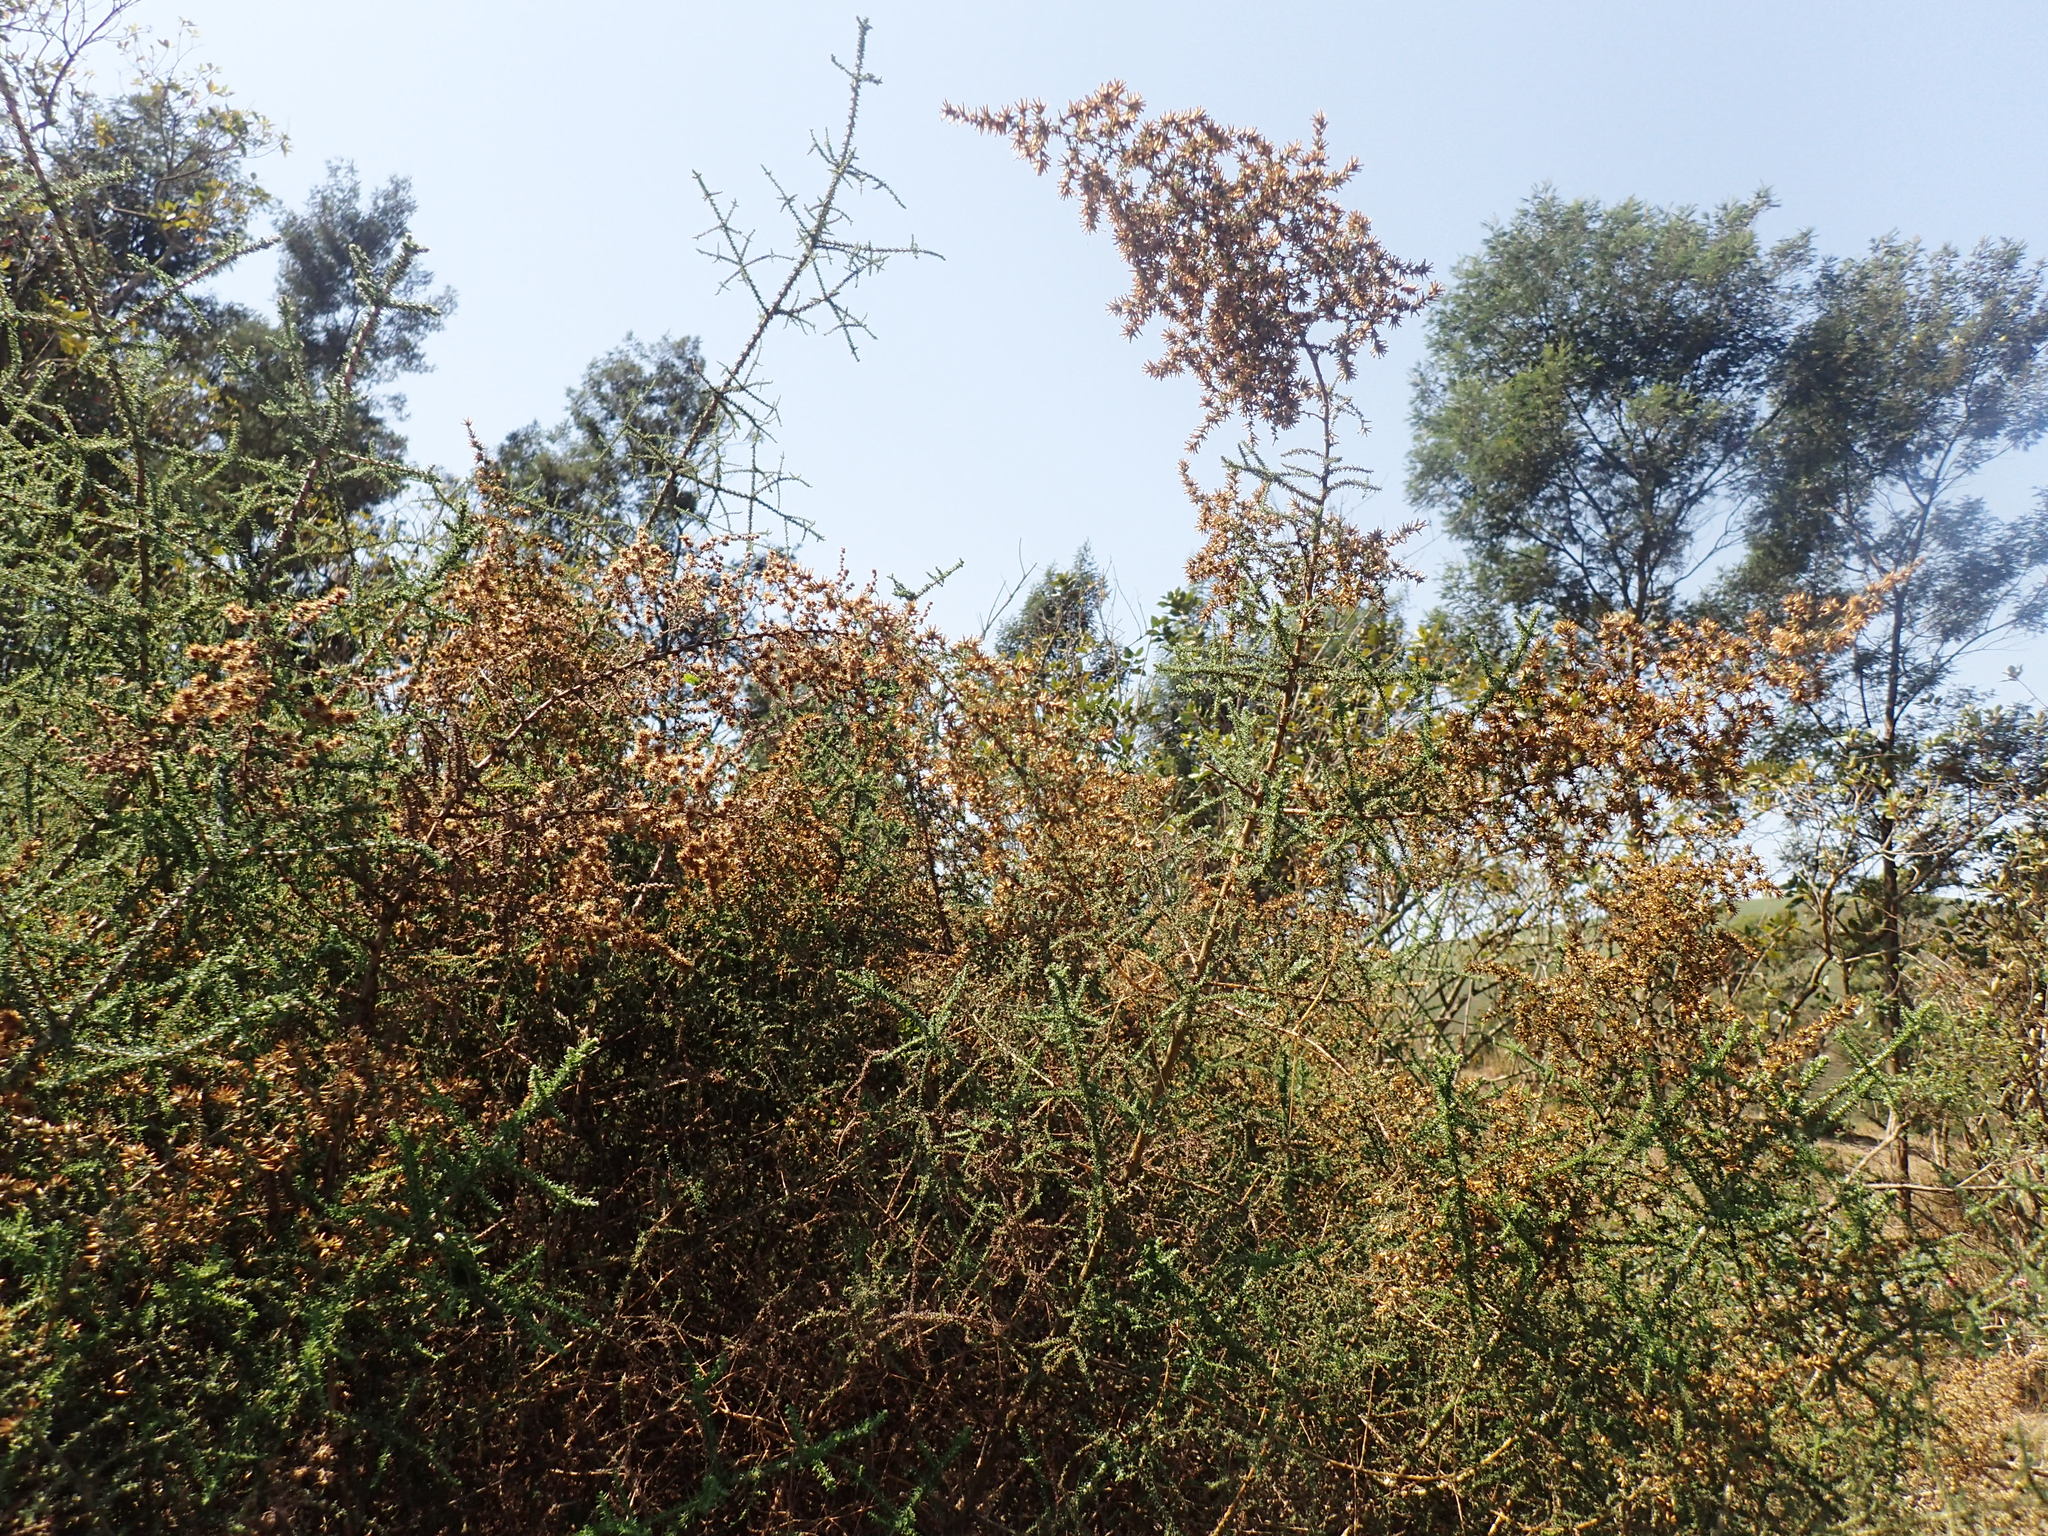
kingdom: Plantae
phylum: Tracheophyta
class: Magnoliopsida
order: Asterales
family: Asteraceae
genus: Seriphium
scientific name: Seriphium
